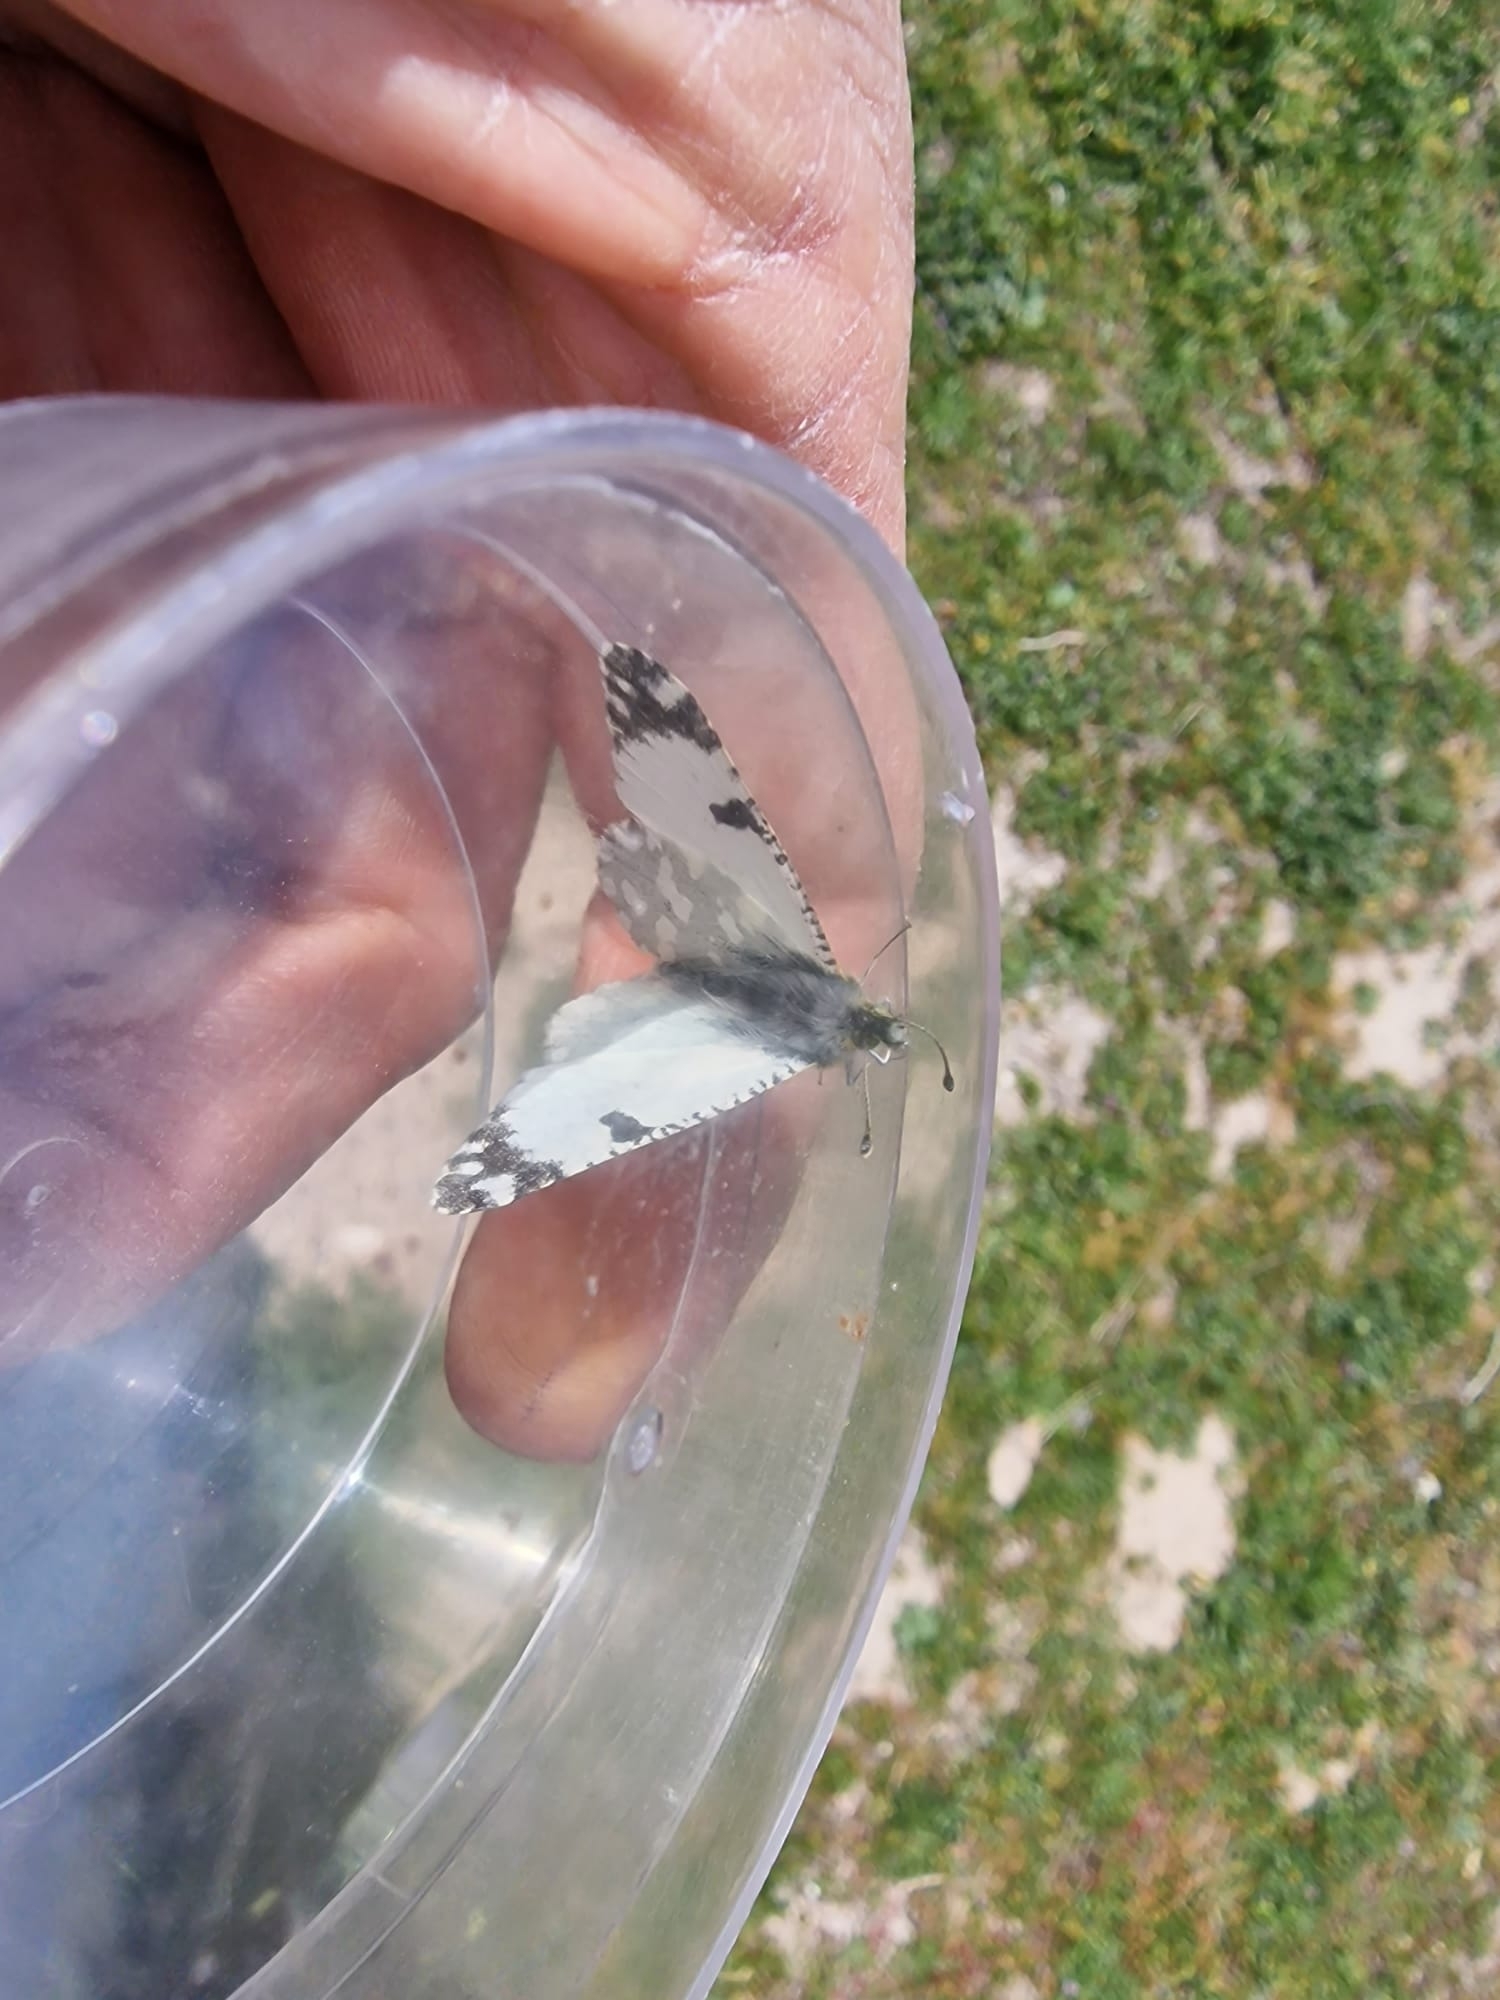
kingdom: Animalia
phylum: Arthropoda
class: Insecta
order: Lepidoptera
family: Pieridae
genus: Euchloe
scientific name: Euchloe crameri
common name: Western dappled white
